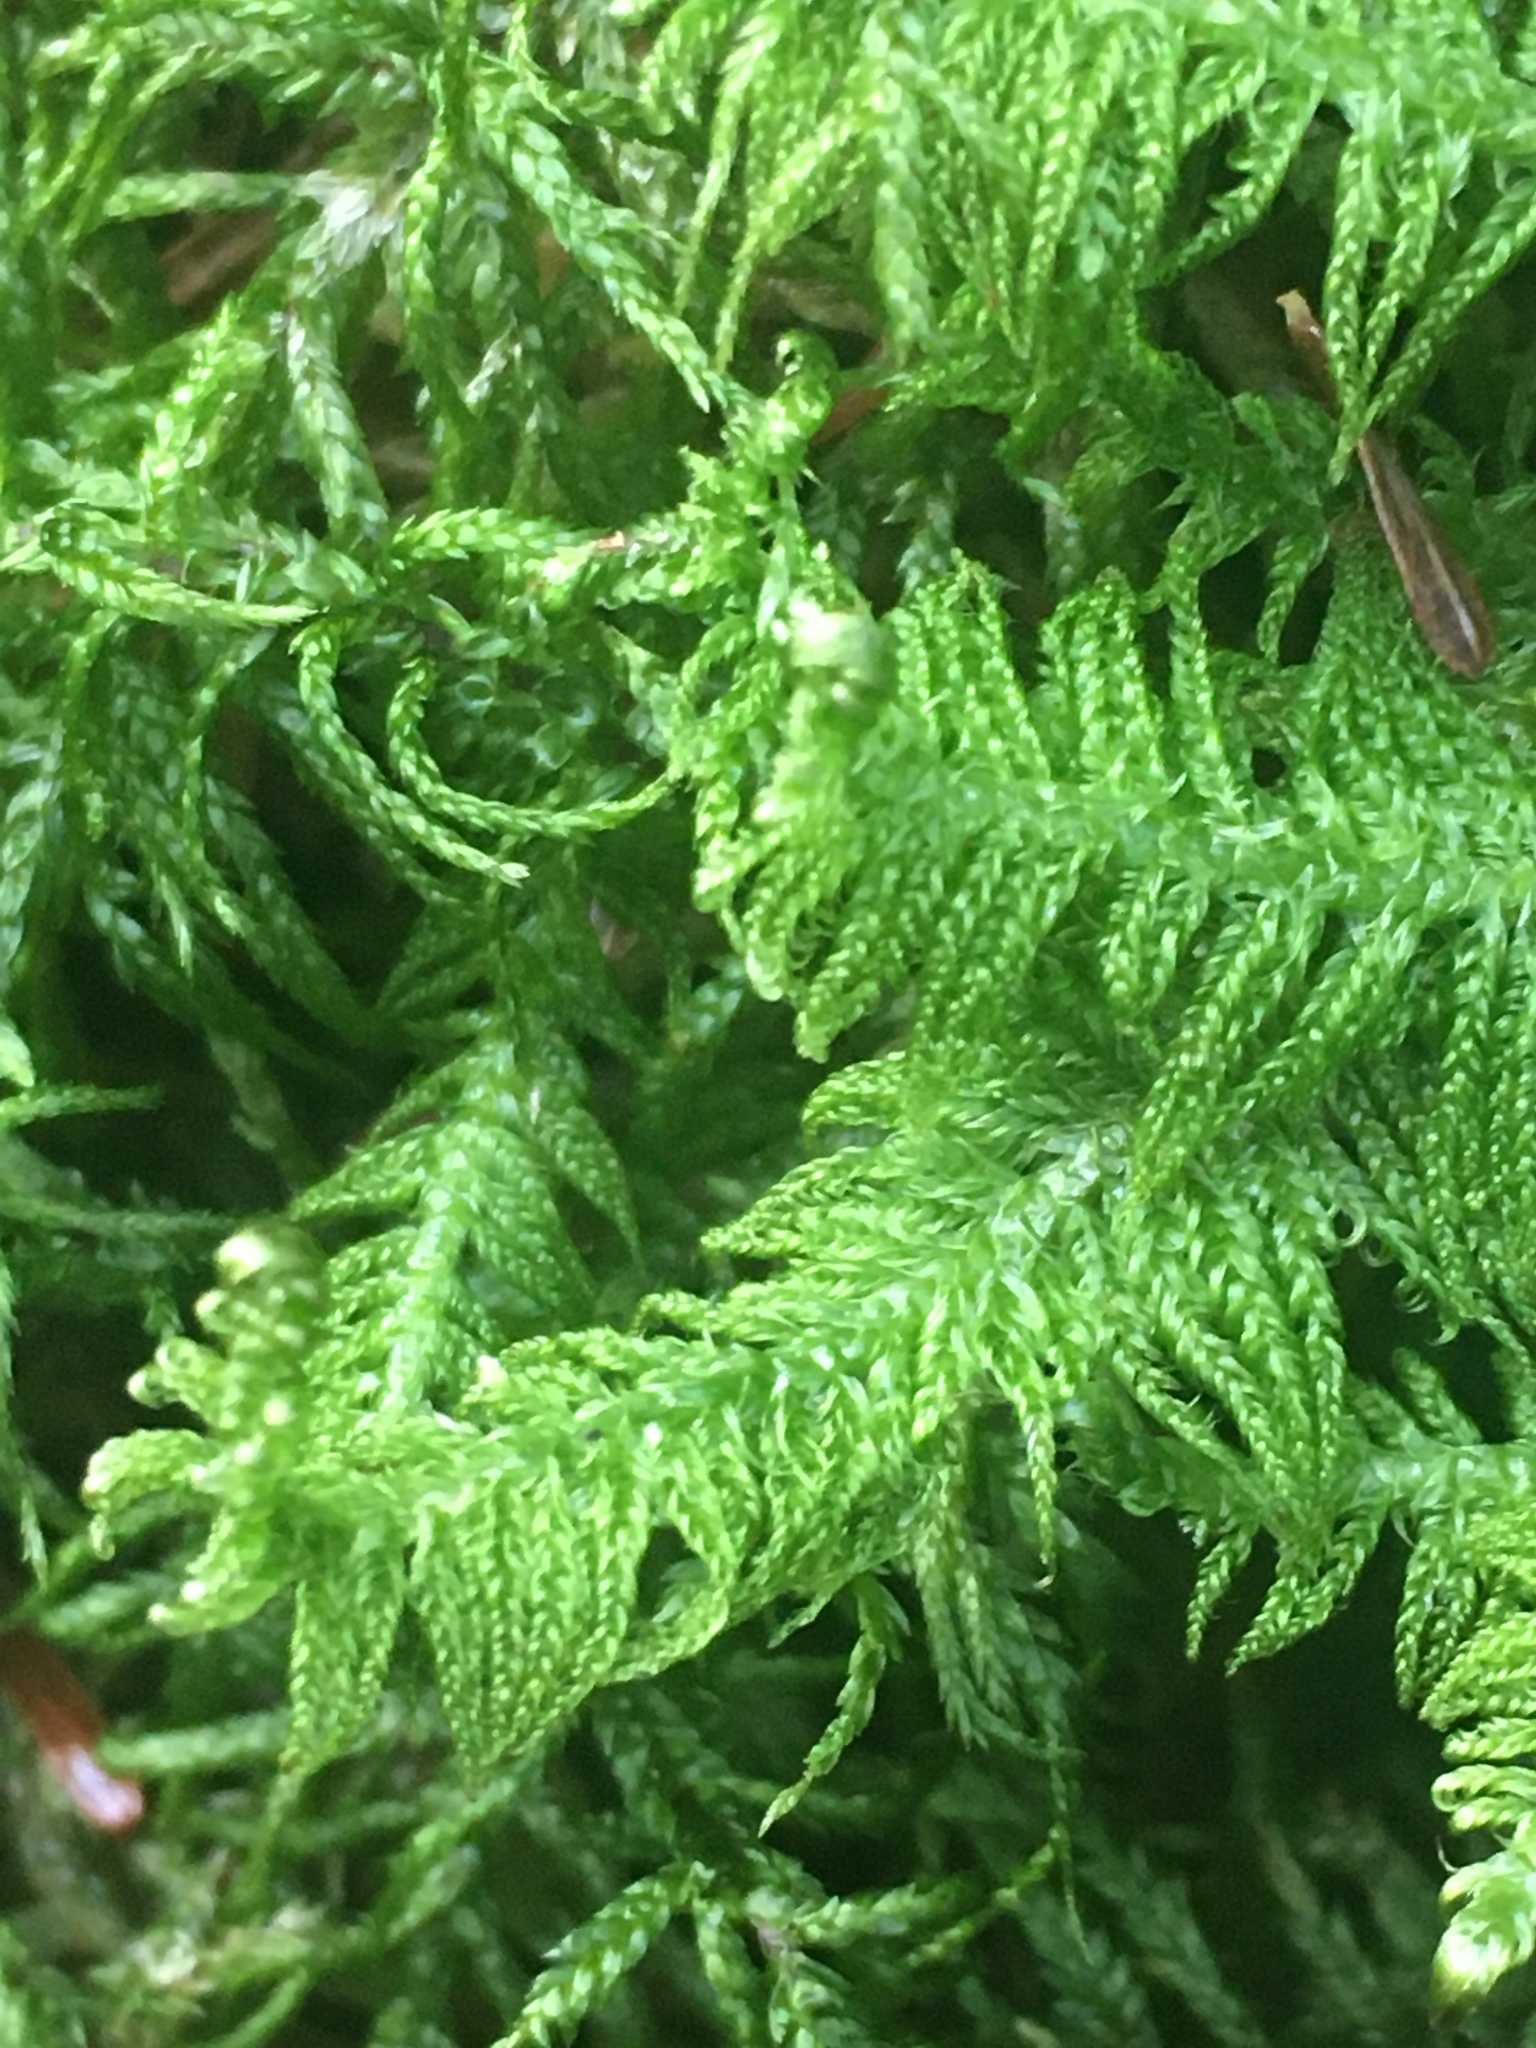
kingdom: Plantae
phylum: Bryophyta
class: Bryopsida
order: Hypnales
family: Pylaisiaceae
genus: Ptilium
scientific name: Ptilium crista-castrensis
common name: Knight's plume moss
